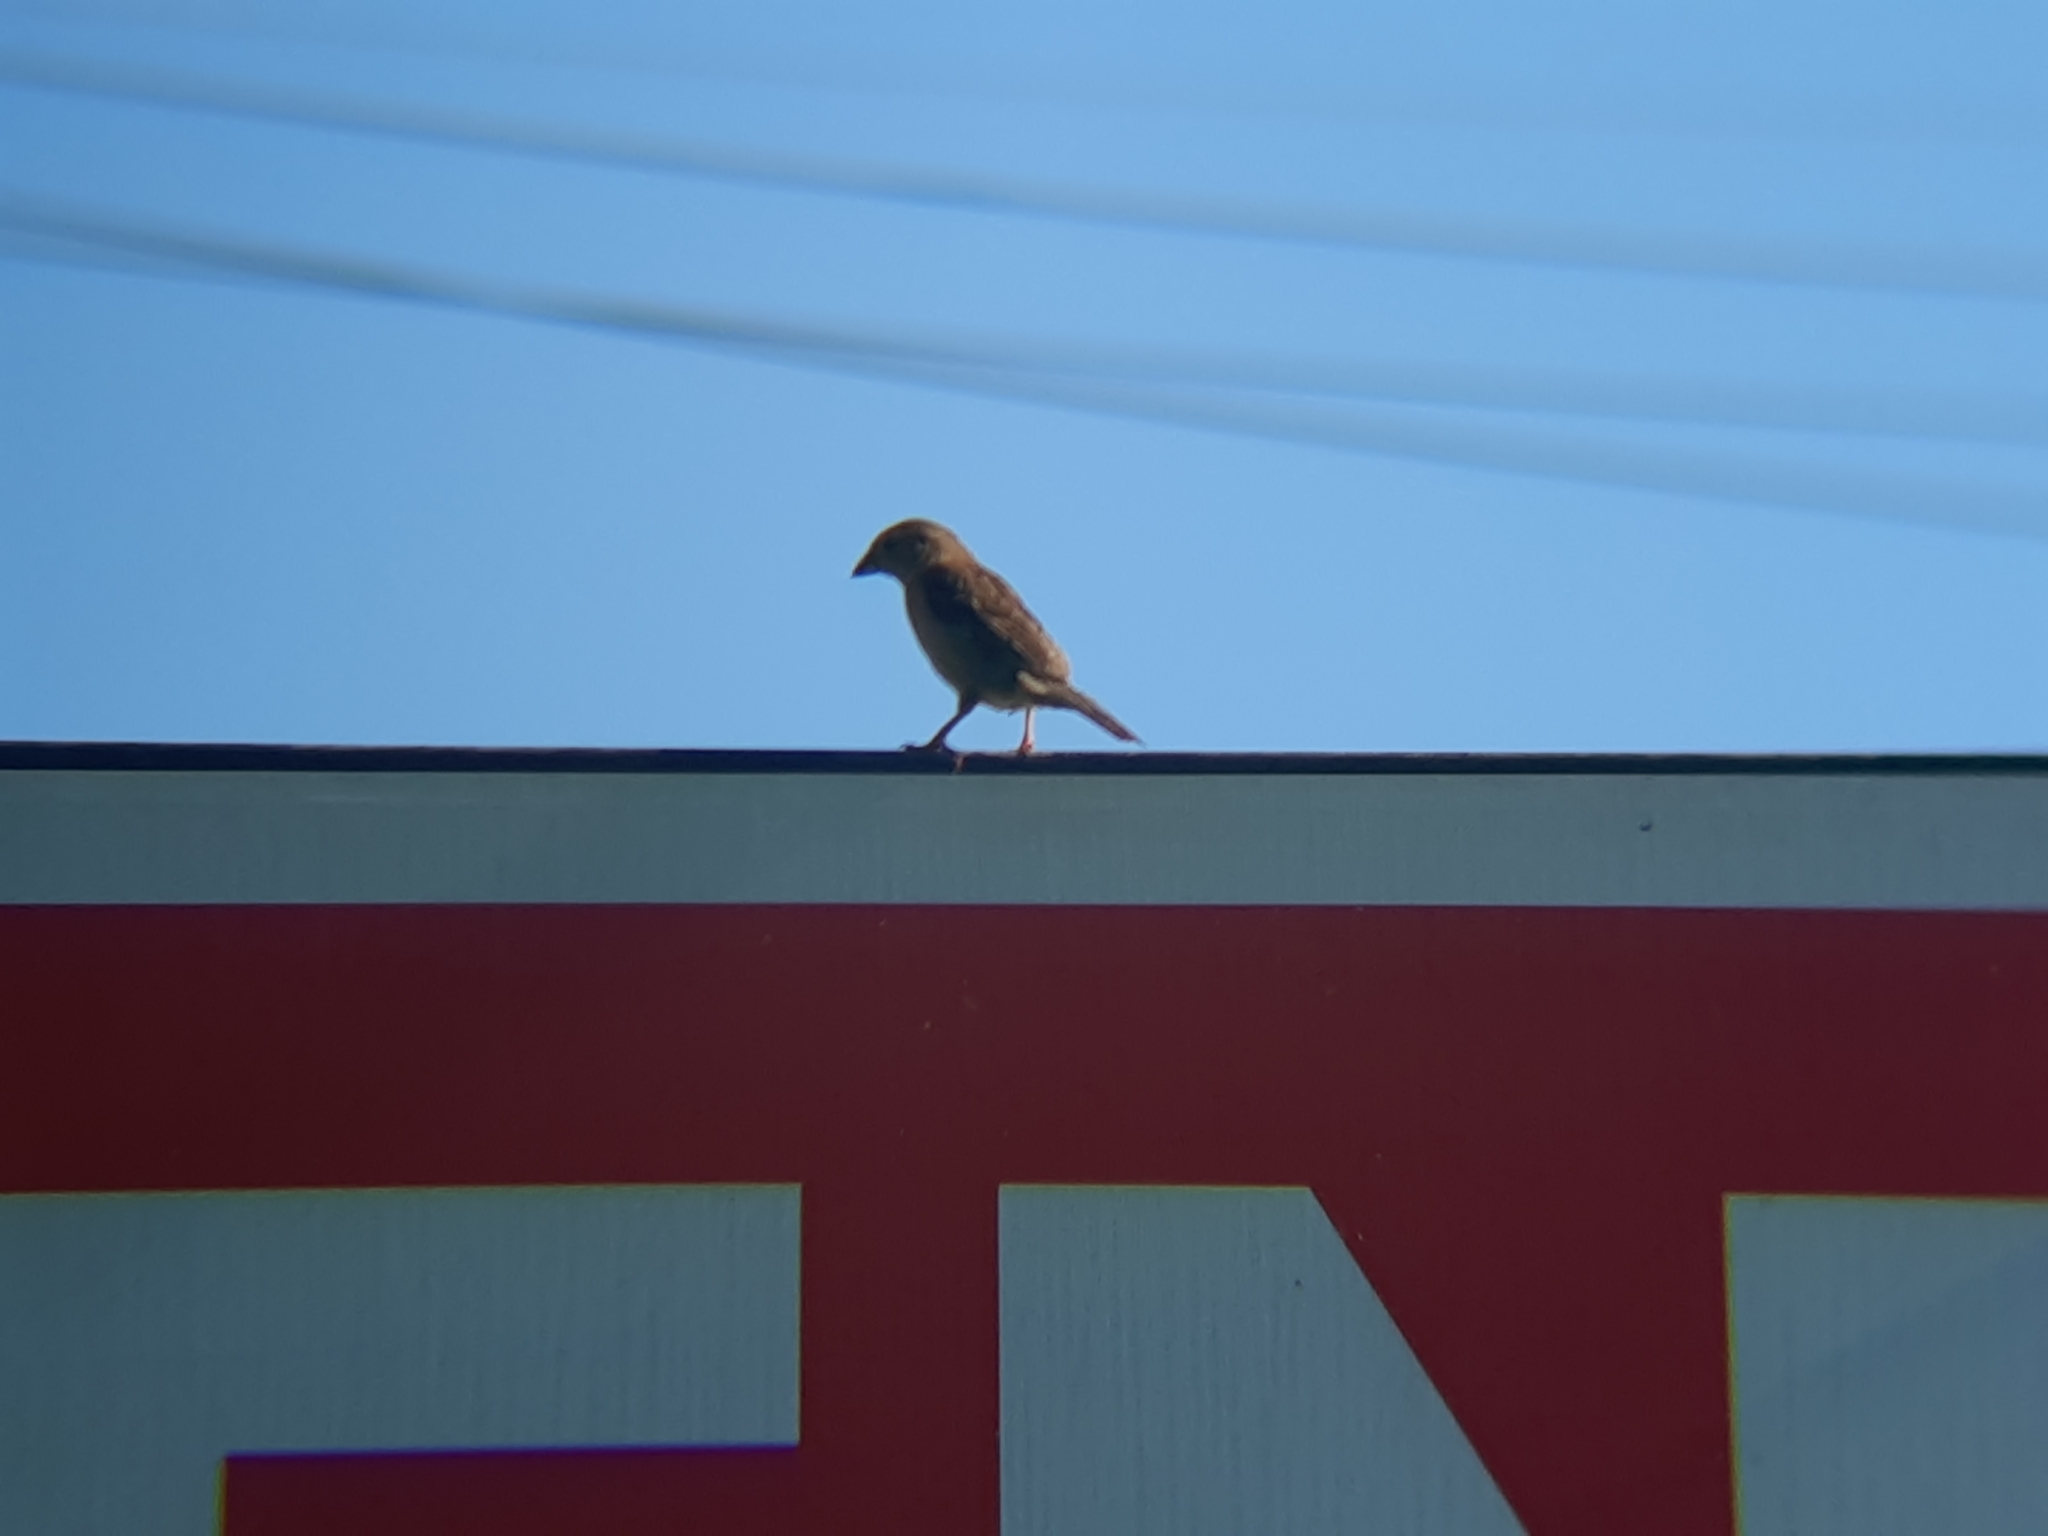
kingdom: Animalia
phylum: Chordata
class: Aves
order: Passeriformes
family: Passeridae
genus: Passer
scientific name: Passer domesticus
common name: House sparrow
